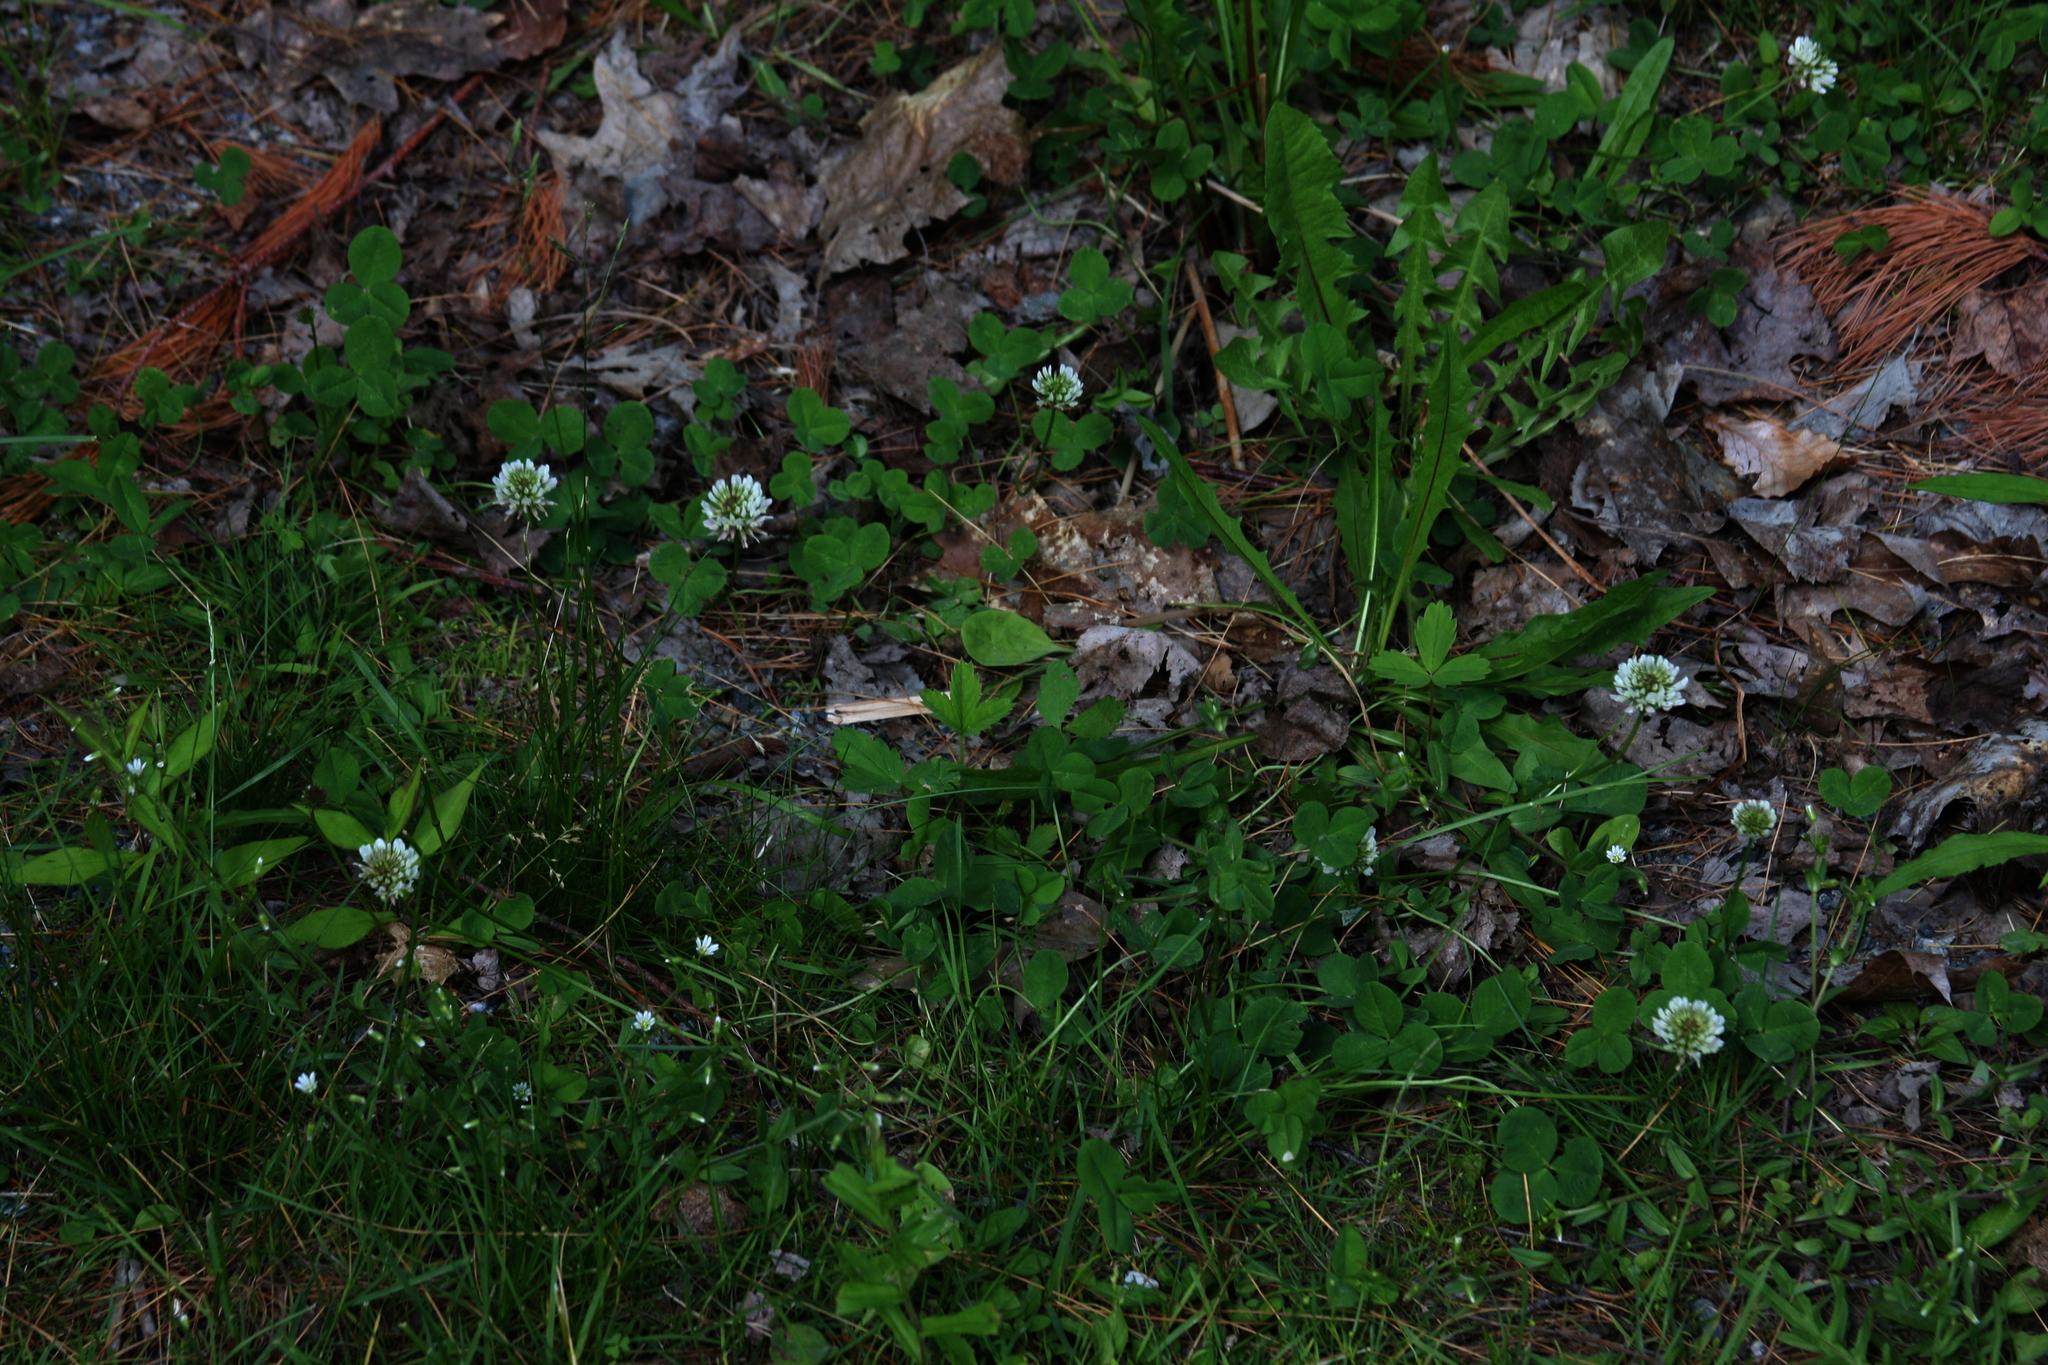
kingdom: Plantae
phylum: Tracheophyta
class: Magnoliopsida
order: Fabales
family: Fabaceae
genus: Trifolium
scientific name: Trifolium repens
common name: White clover
